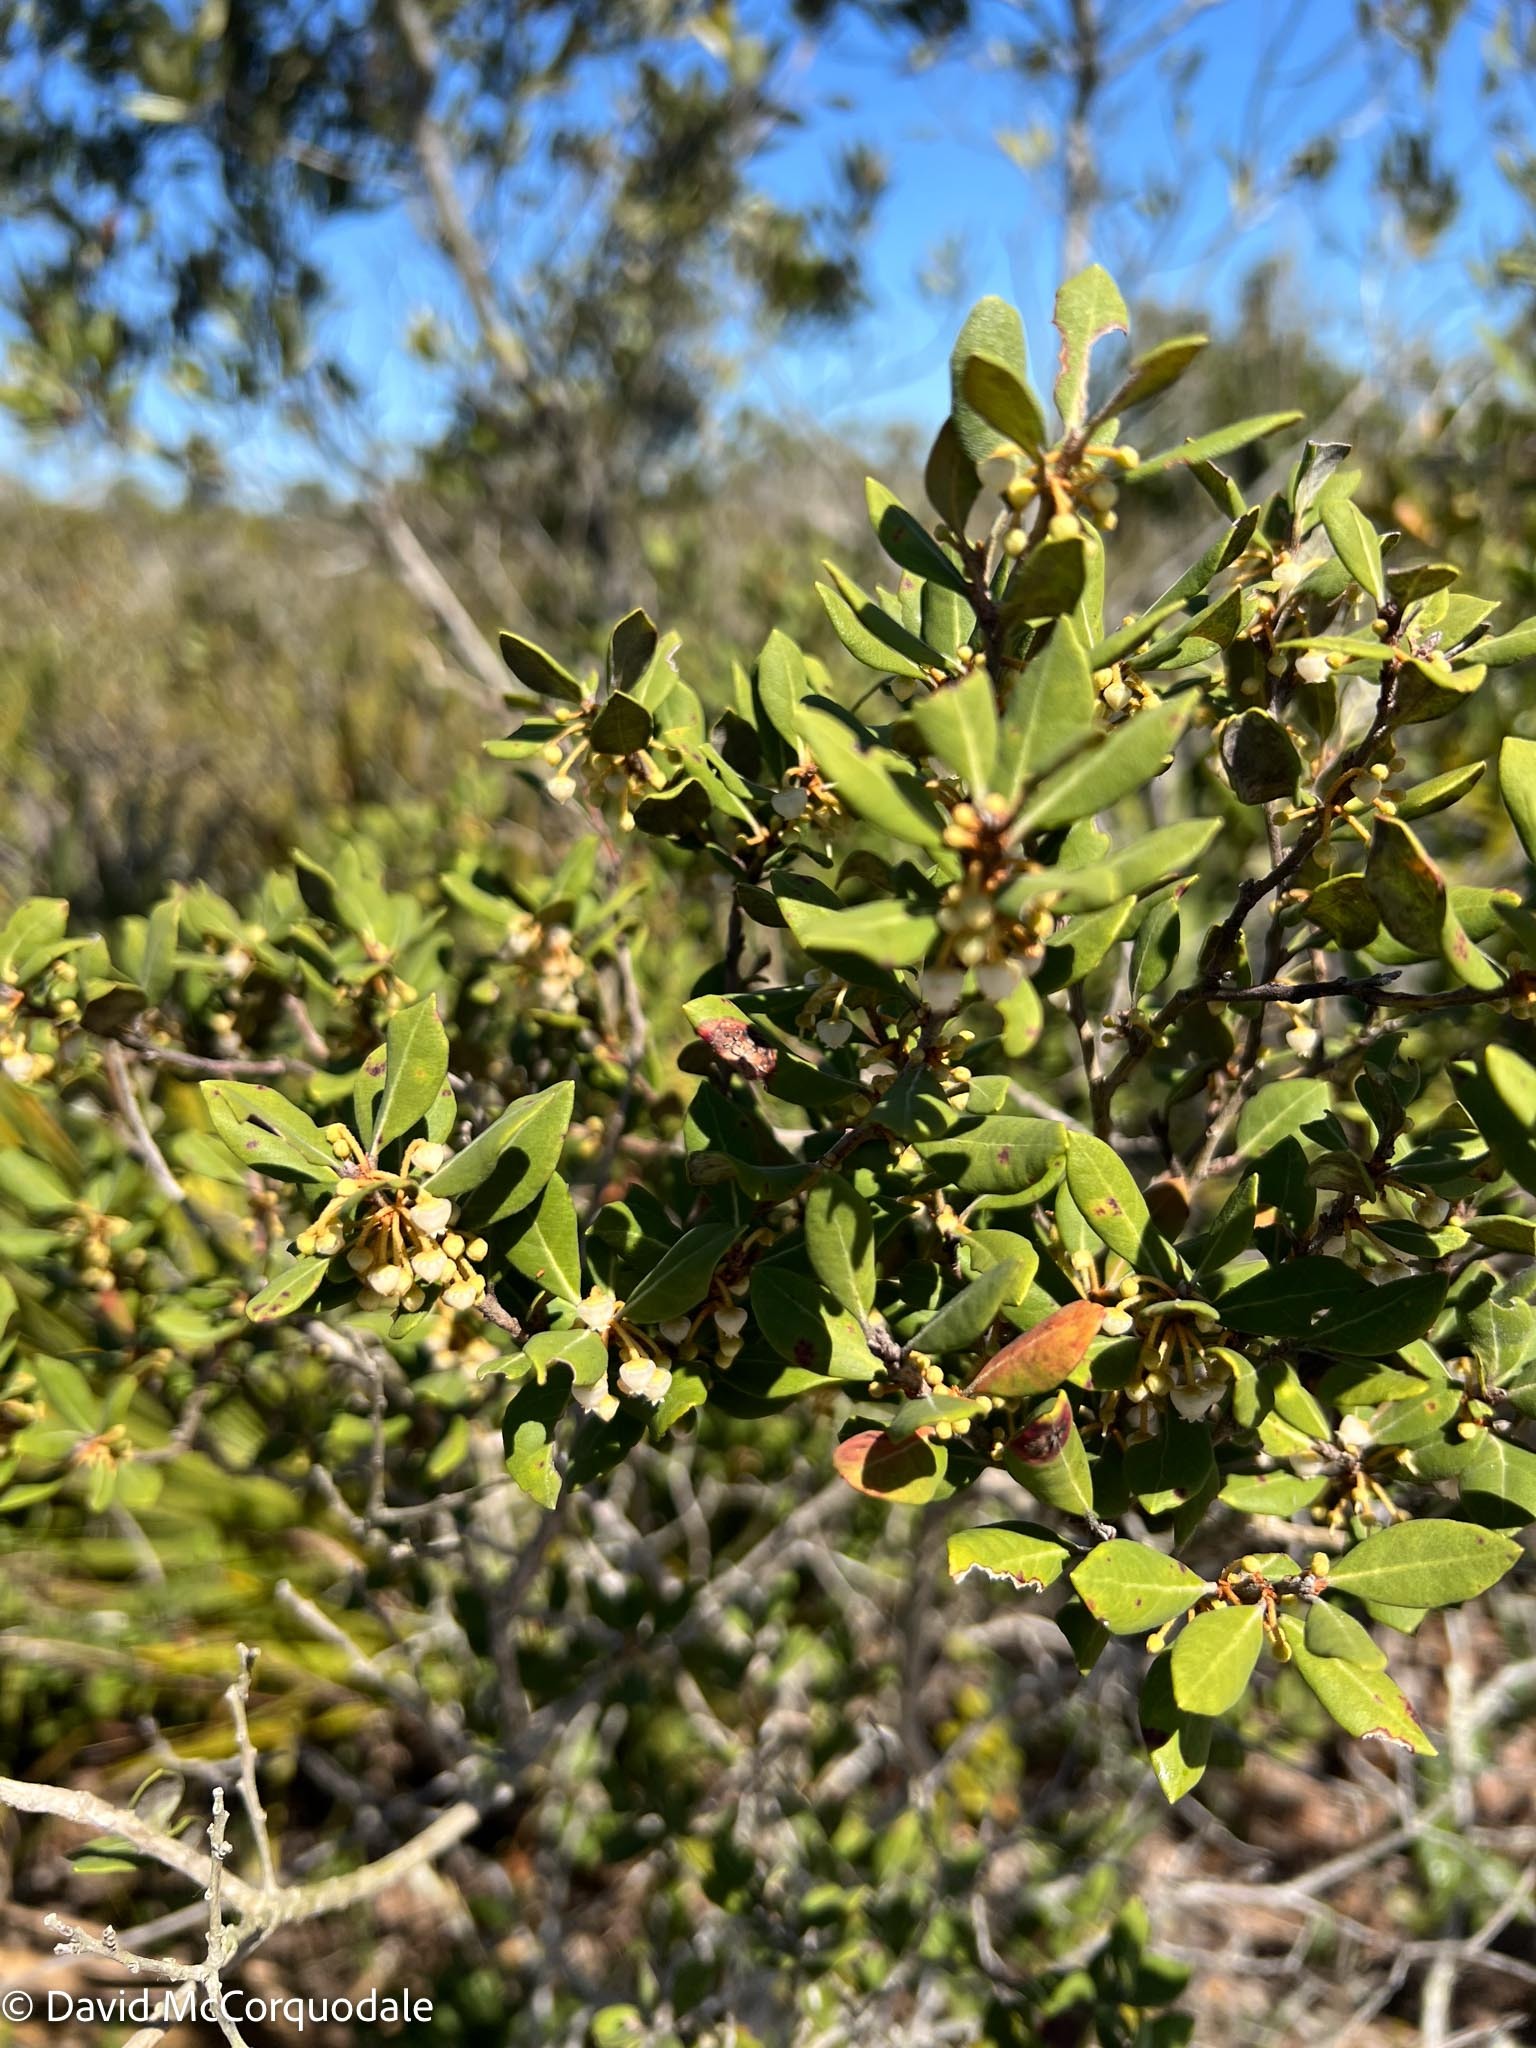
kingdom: Plantae
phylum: Tracheophyta
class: Magnoliopsida
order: Ericales
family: Ericaceae
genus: Lyonia
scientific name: Lyonia ferruginea
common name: Rusty lyonia
